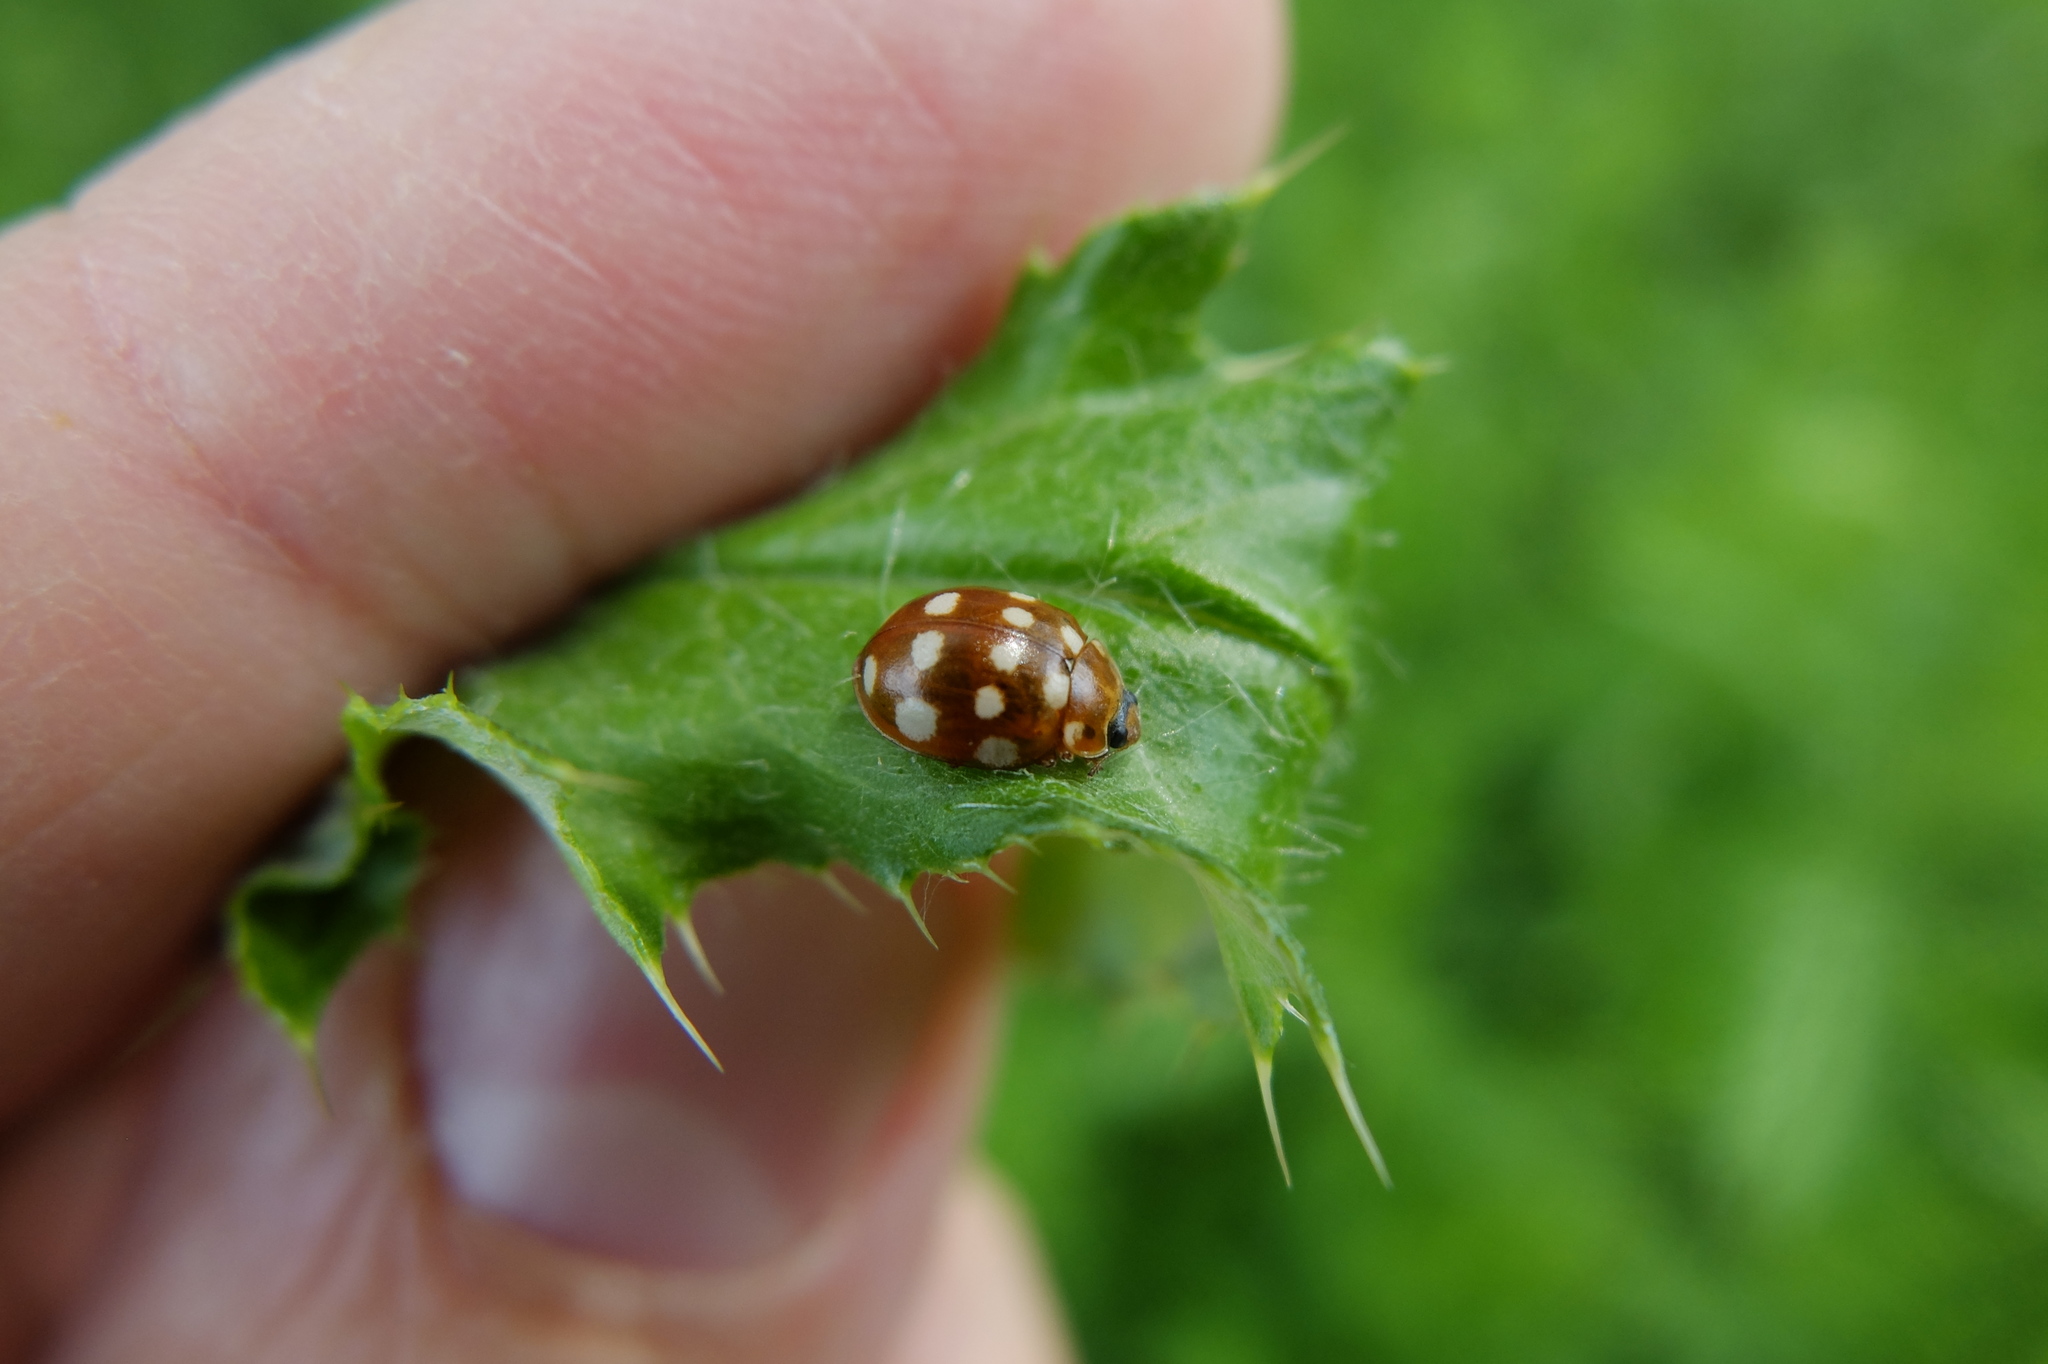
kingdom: Animalia
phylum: Arthropoda
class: Insecta
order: Coleoptera
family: Coccinellidae
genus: Calvia
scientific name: Calvia quatuordecimguttata
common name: Cream-spot ladybird
